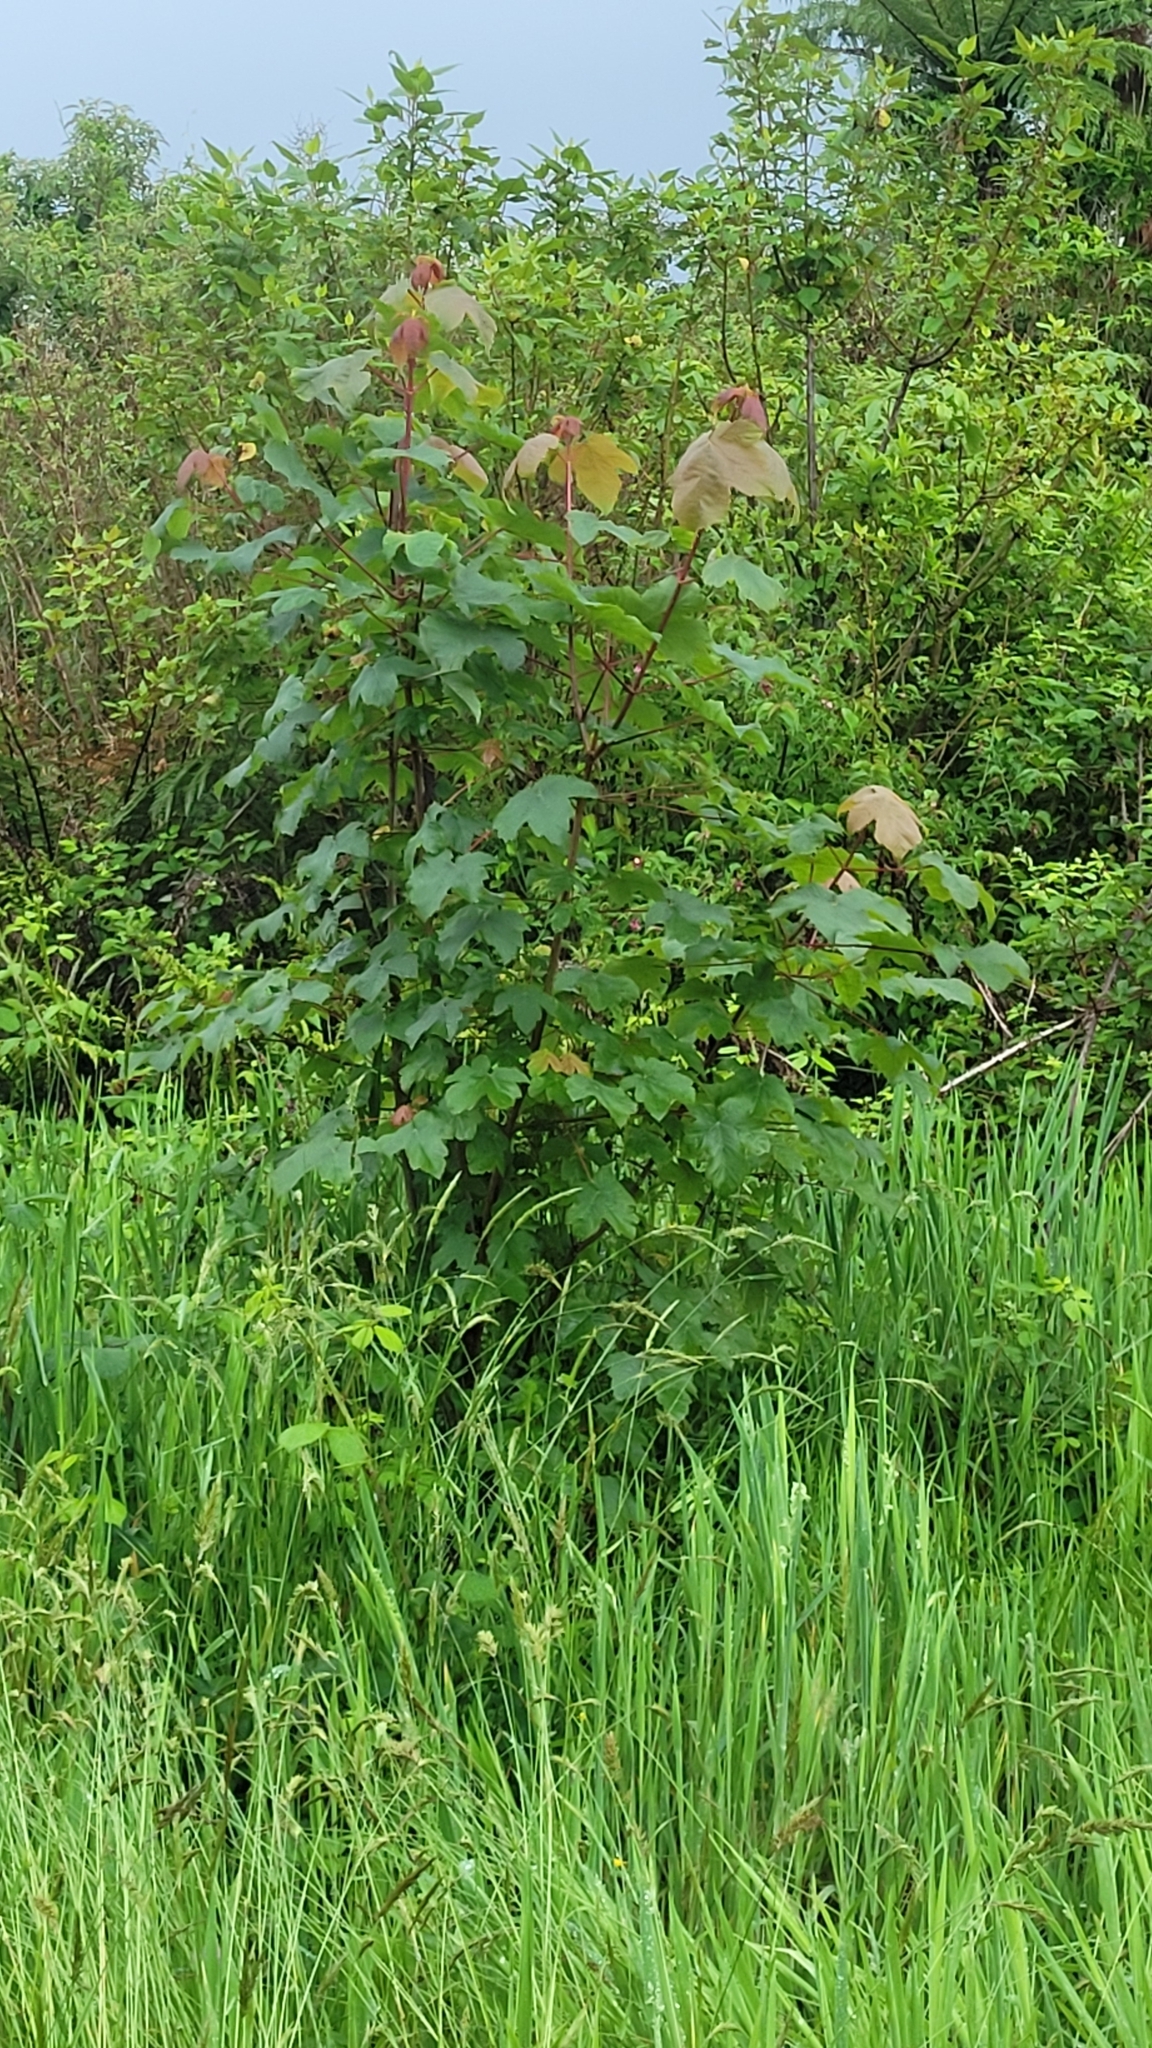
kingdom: Plantae
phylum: Tracheophyta
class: Magnoliopsida
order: Sapindales
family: Sapindaceae
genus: Acer
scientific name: Acer pseudoplatanus
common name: Sycamore
